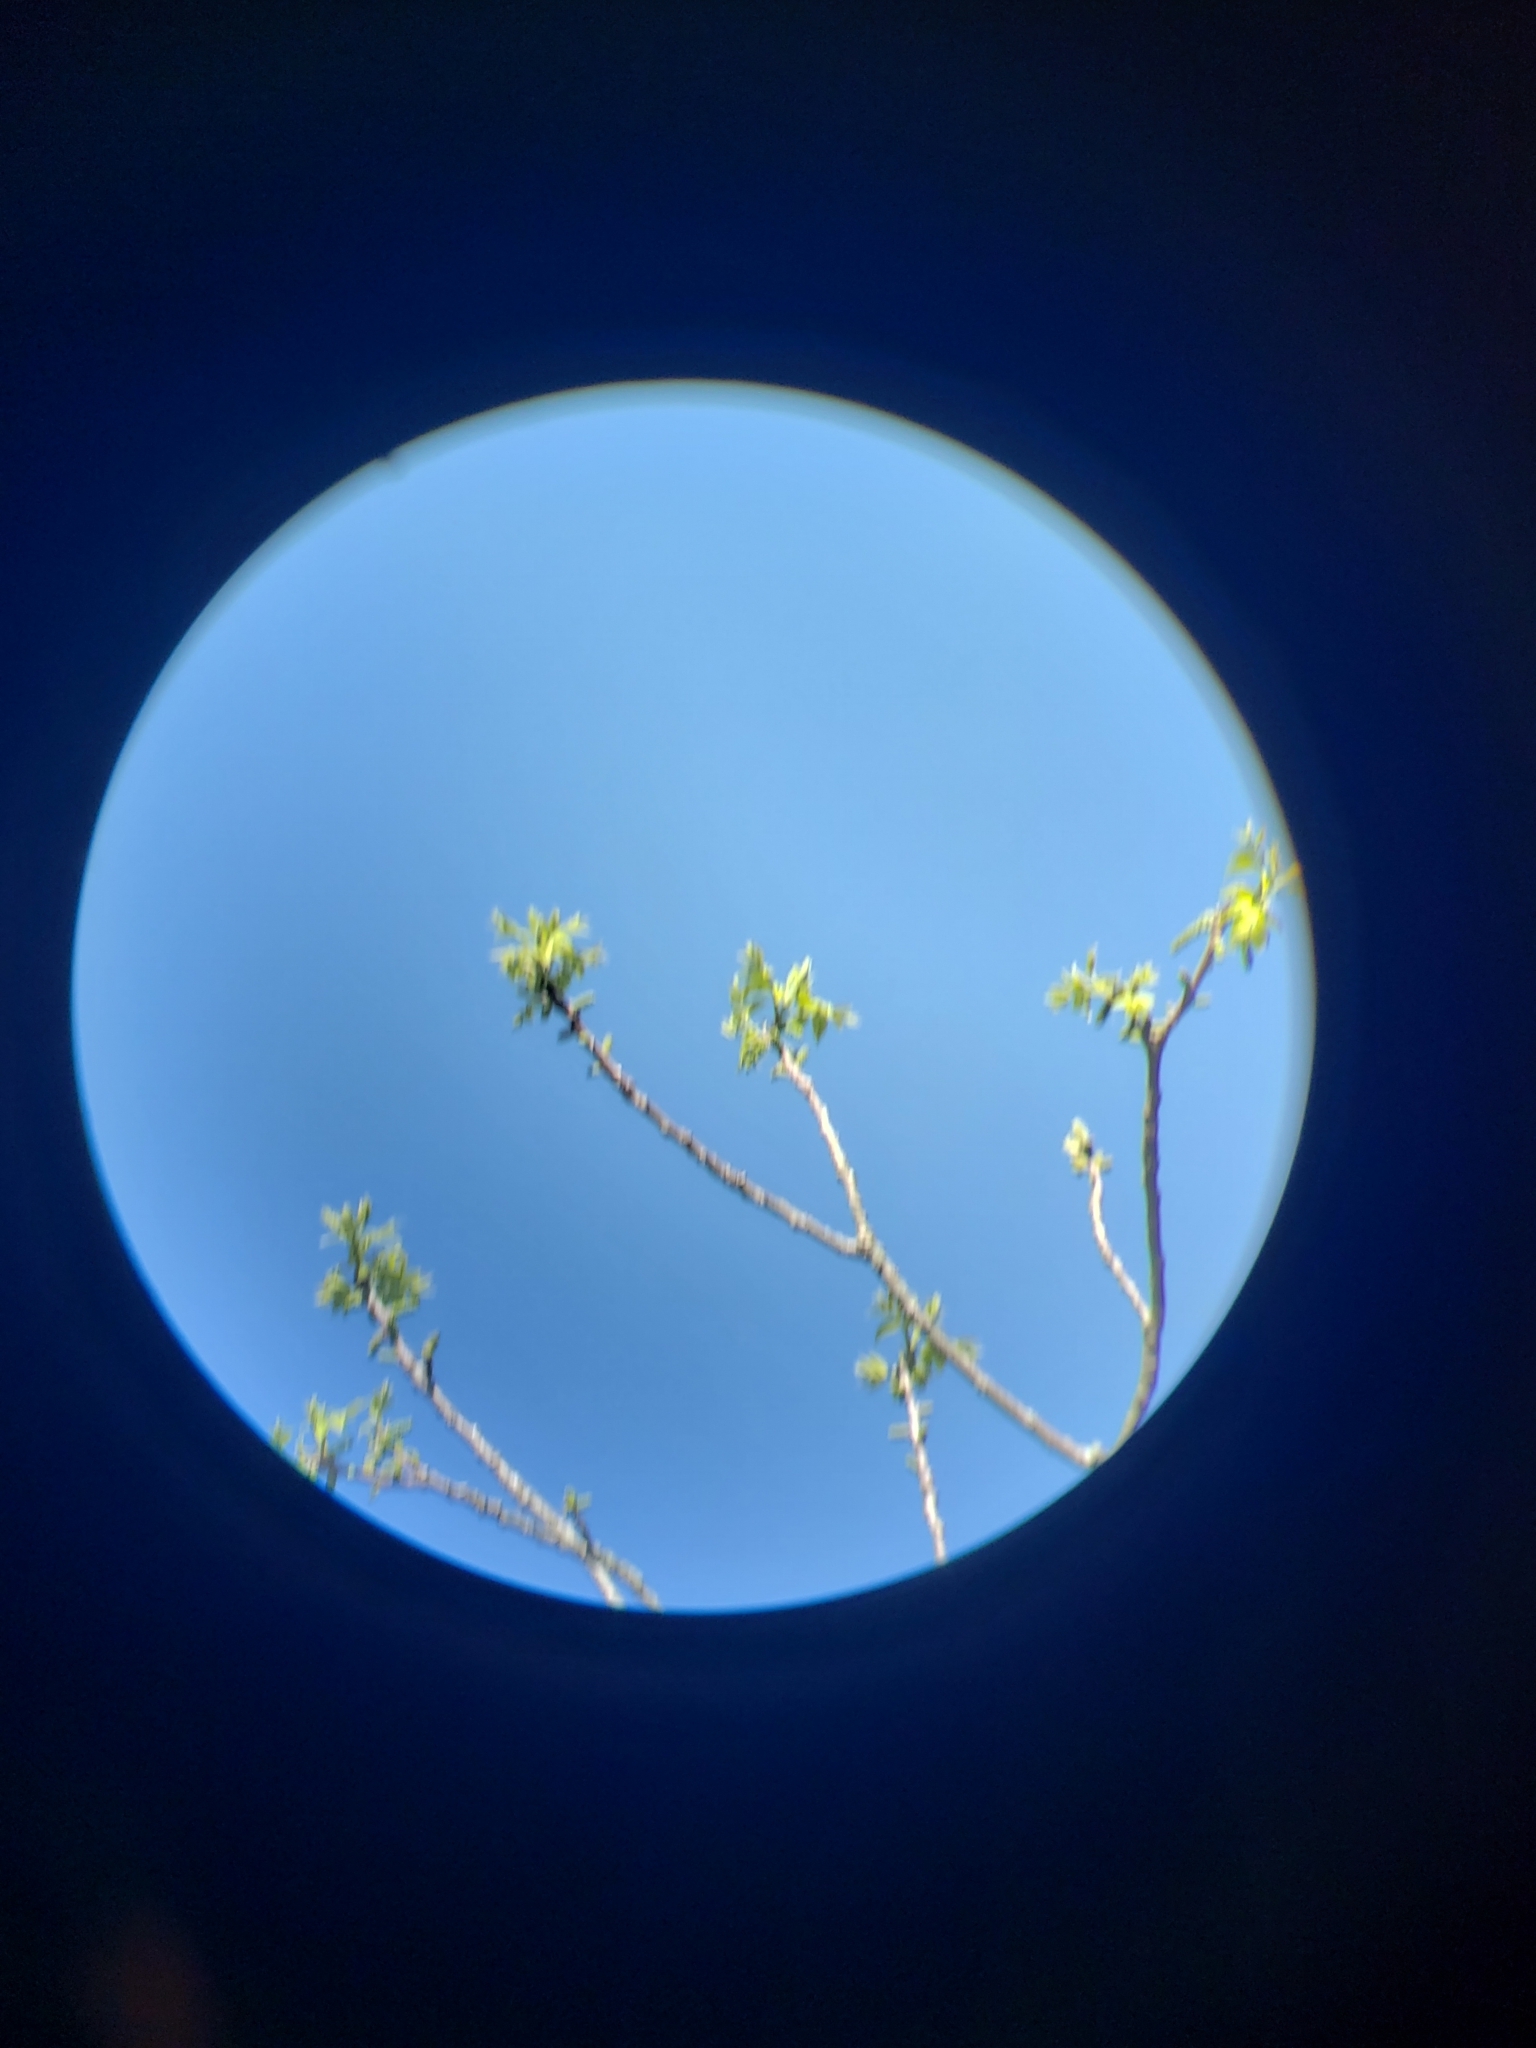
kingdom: Animalia
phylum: Chordata
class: Aves
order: Passeriformes
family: Tyrannidae
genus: Tyrannus
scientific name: Tyrannus tyrannus
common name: Eastern kingbird
